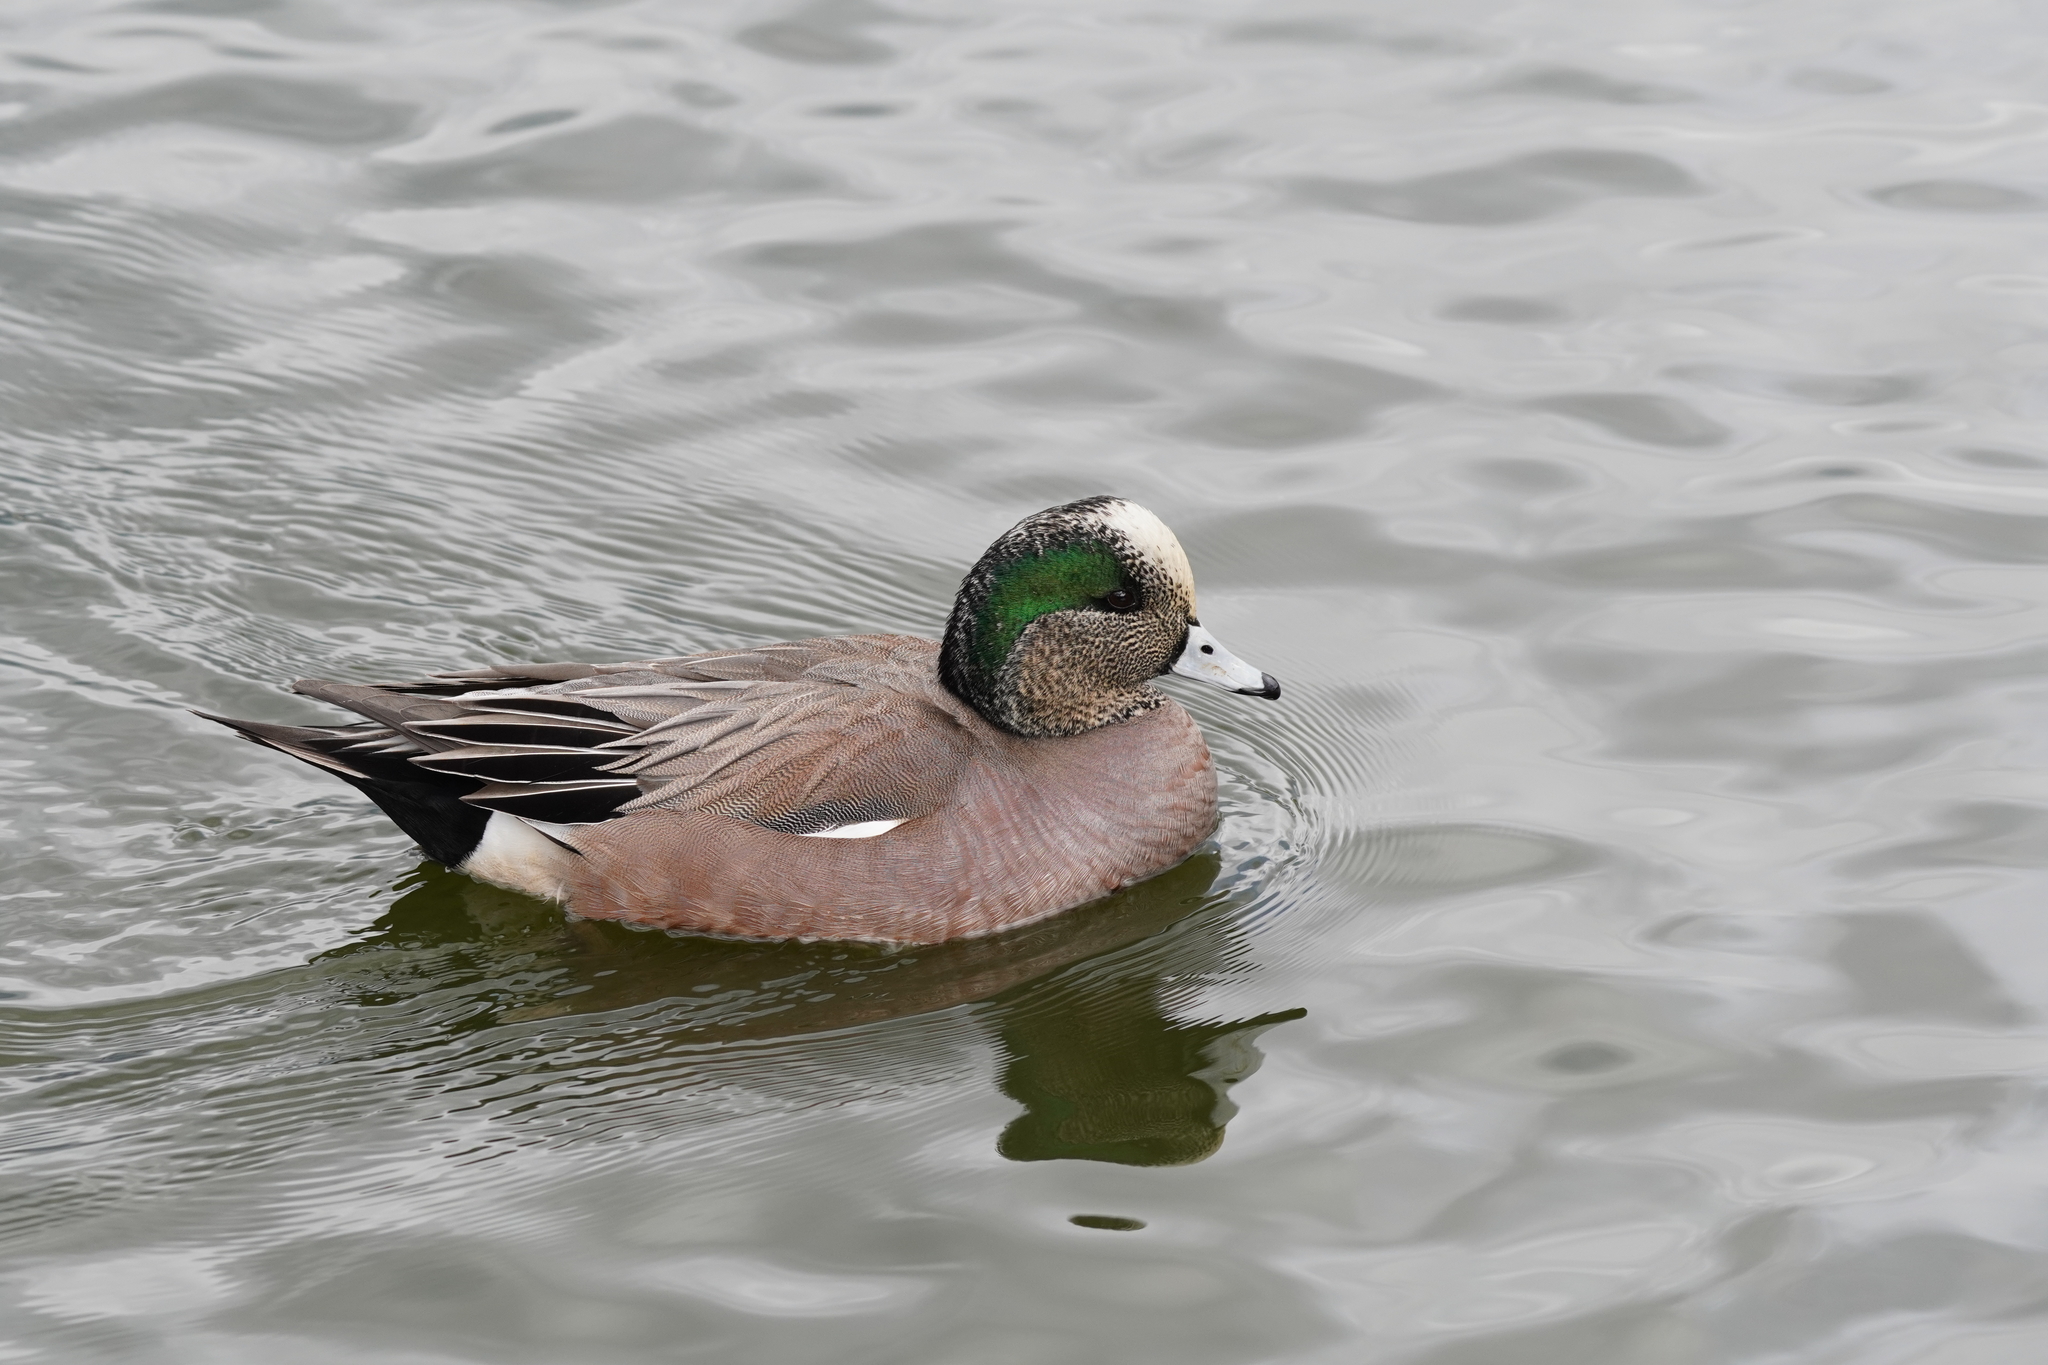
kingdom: Animalia
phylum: Chordata
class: Aves
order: Anseriformes
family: Anatidae
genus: Mareca
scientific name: Mareca americana
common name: American wigeon
